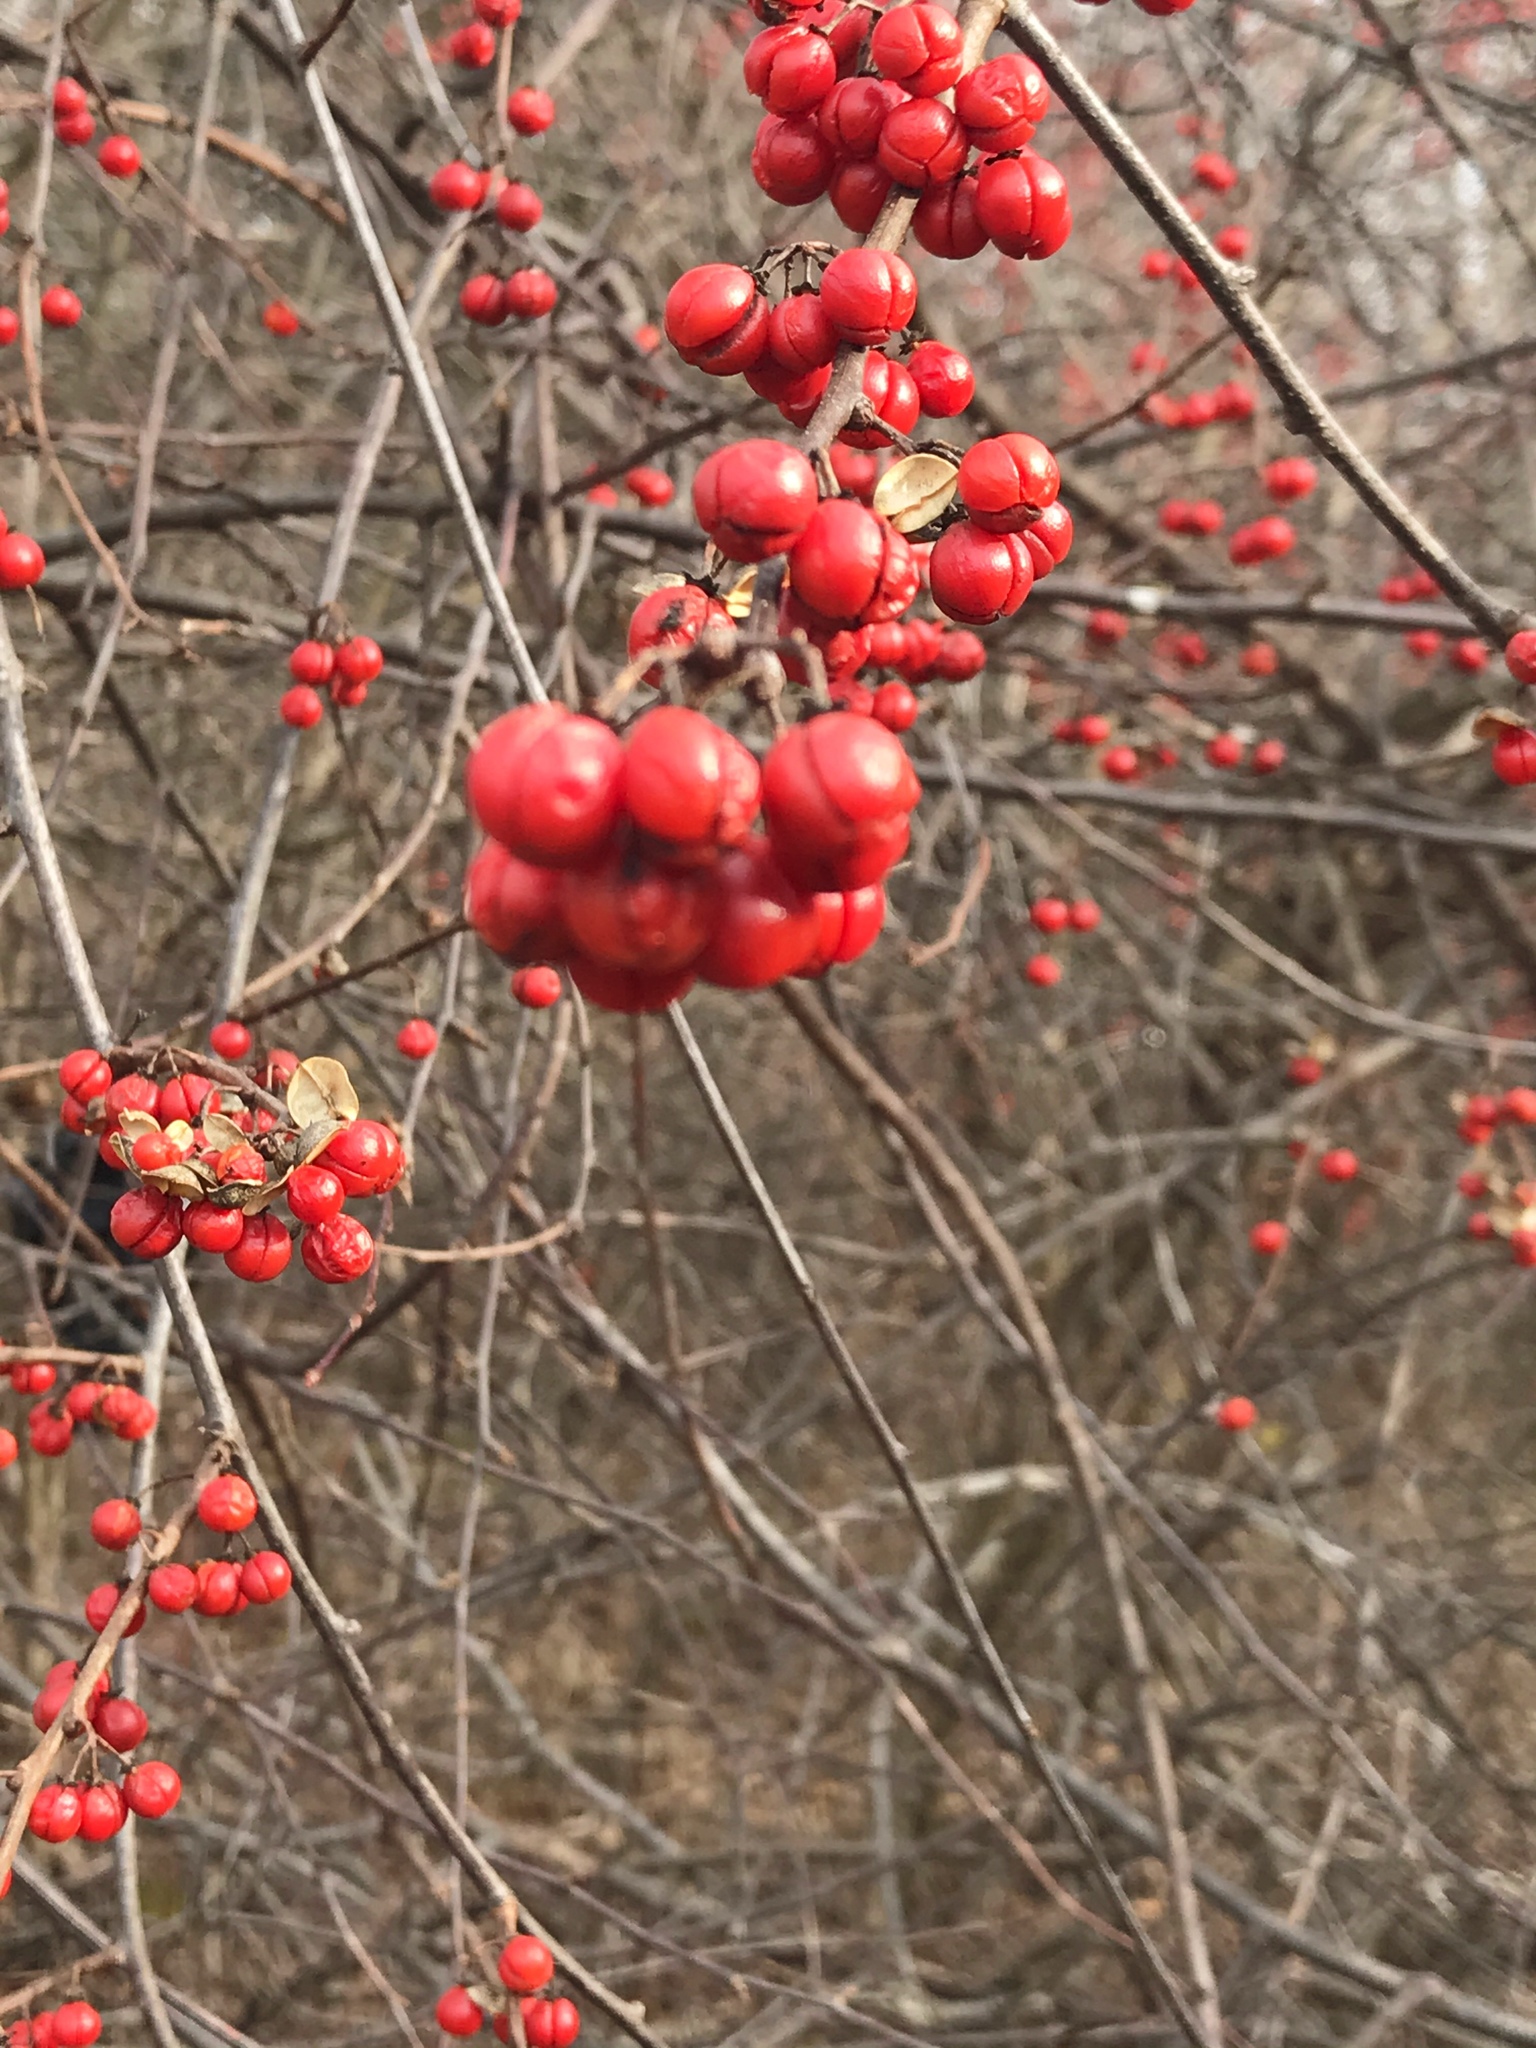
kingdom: Plantae
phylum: Tracheophyta
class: Magnoliopsida
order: Celastrales
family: Celastraceae
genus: Celastrus
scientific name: Celastrus orbiculatus
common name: Oriental bittersweet
